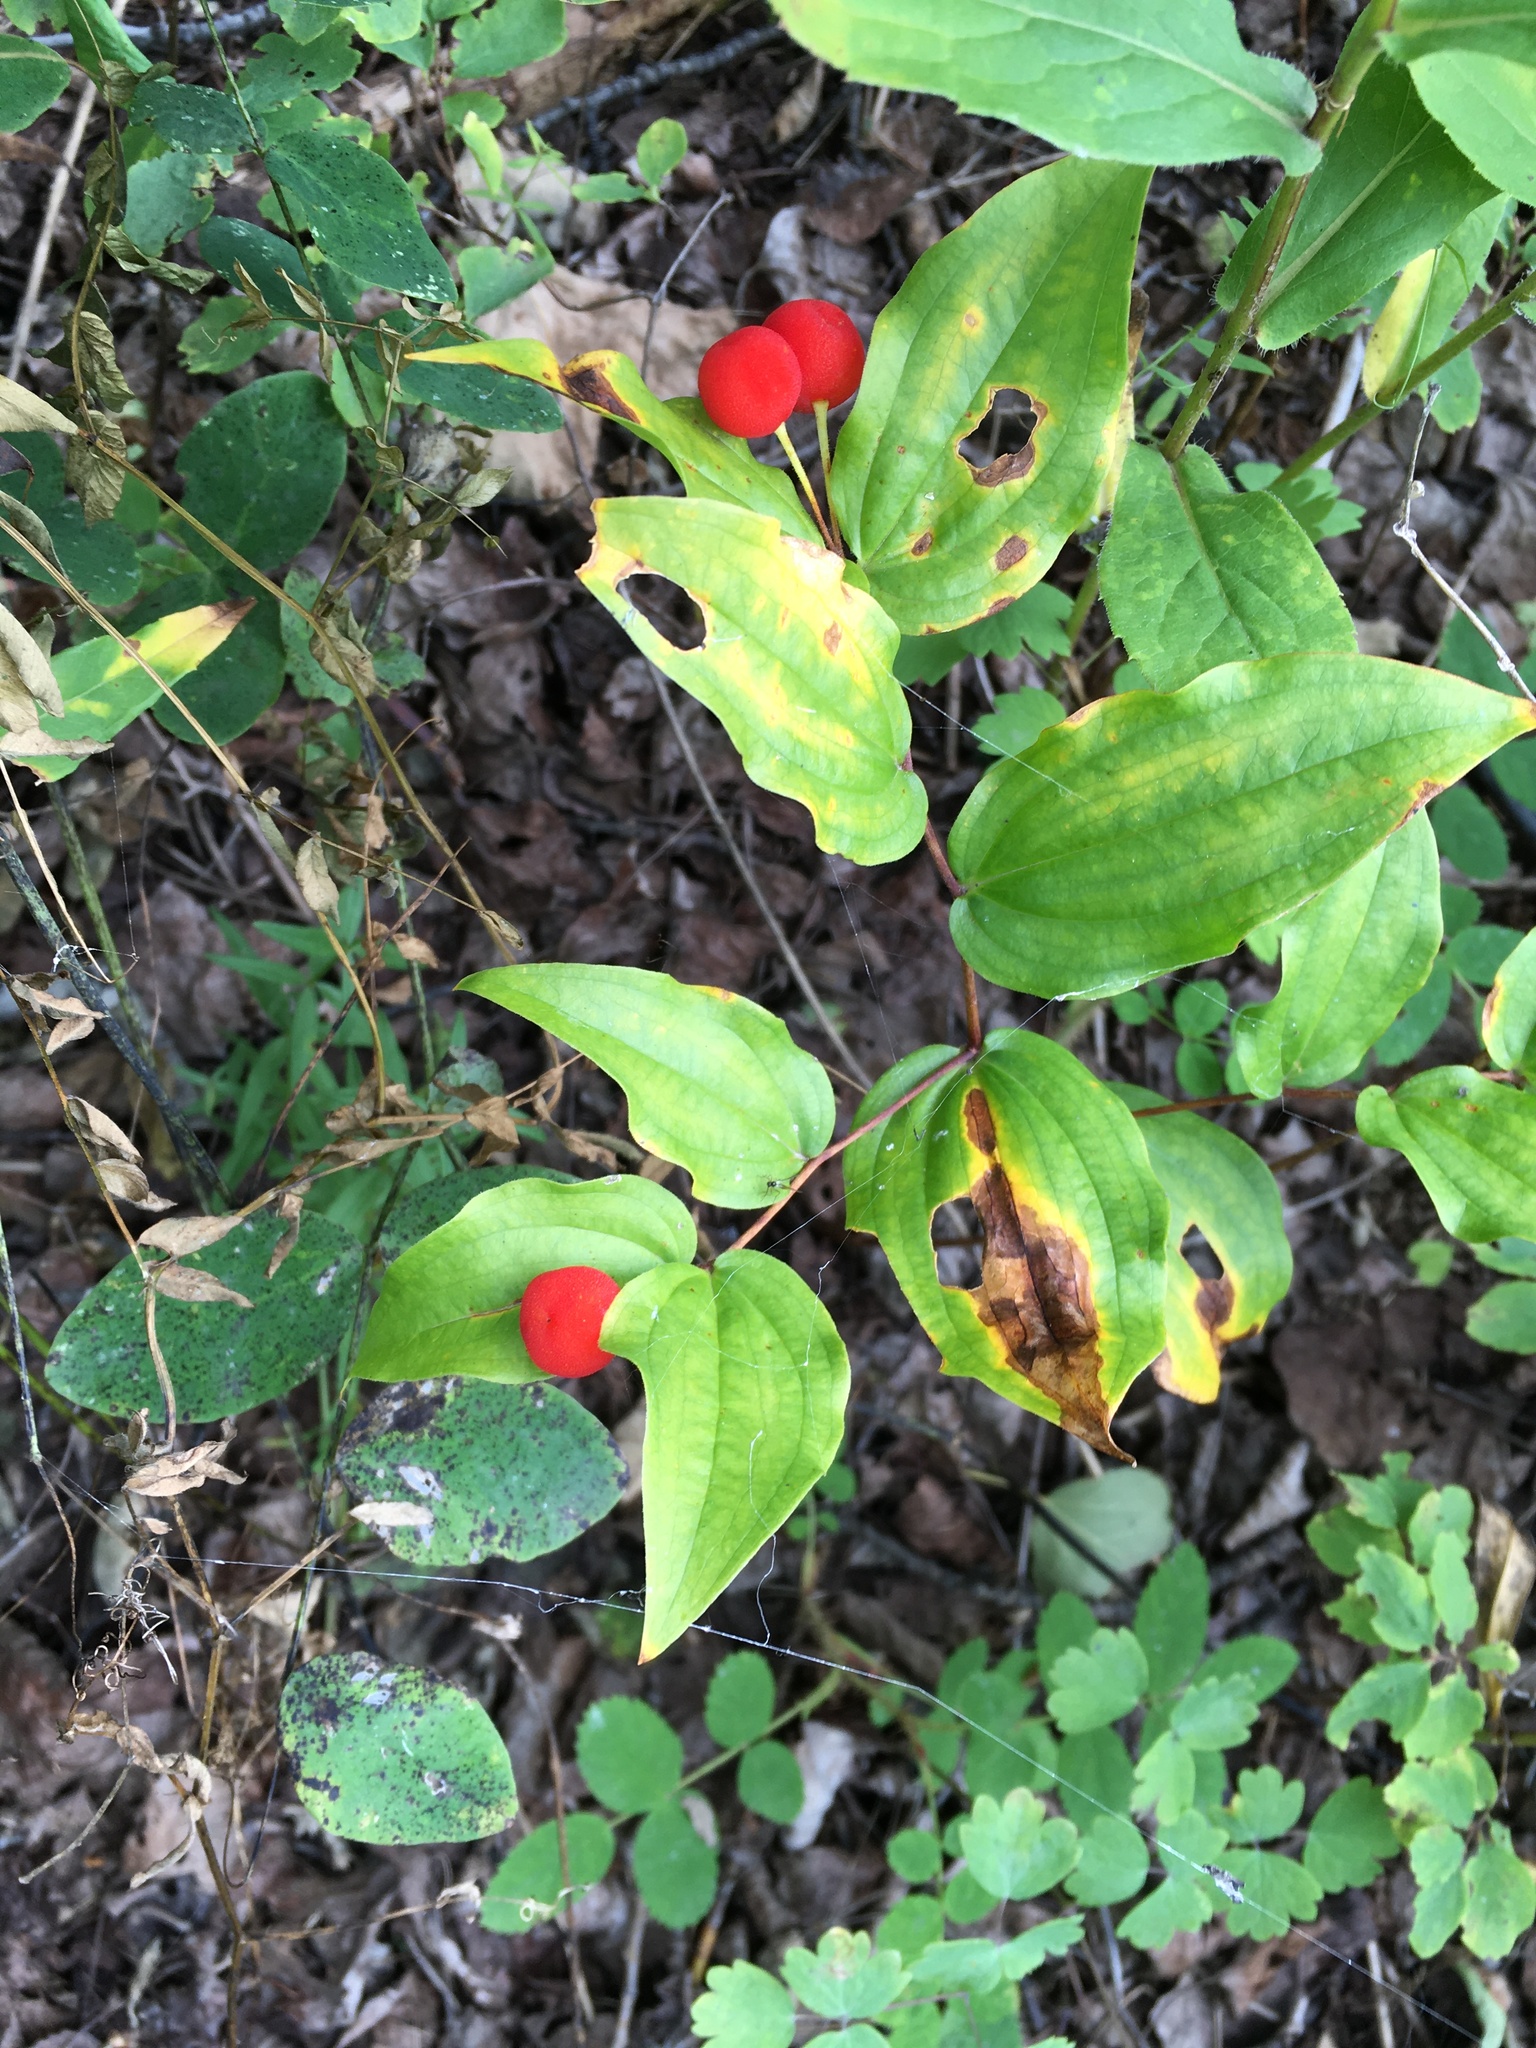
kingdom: Plantae
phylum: Tracheophyta
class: Liliopsida
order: Liliales
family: Liliaceae
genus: Prosartes
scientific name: Prosartes trachycarpa
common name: Rough-fruit fairy-bells
